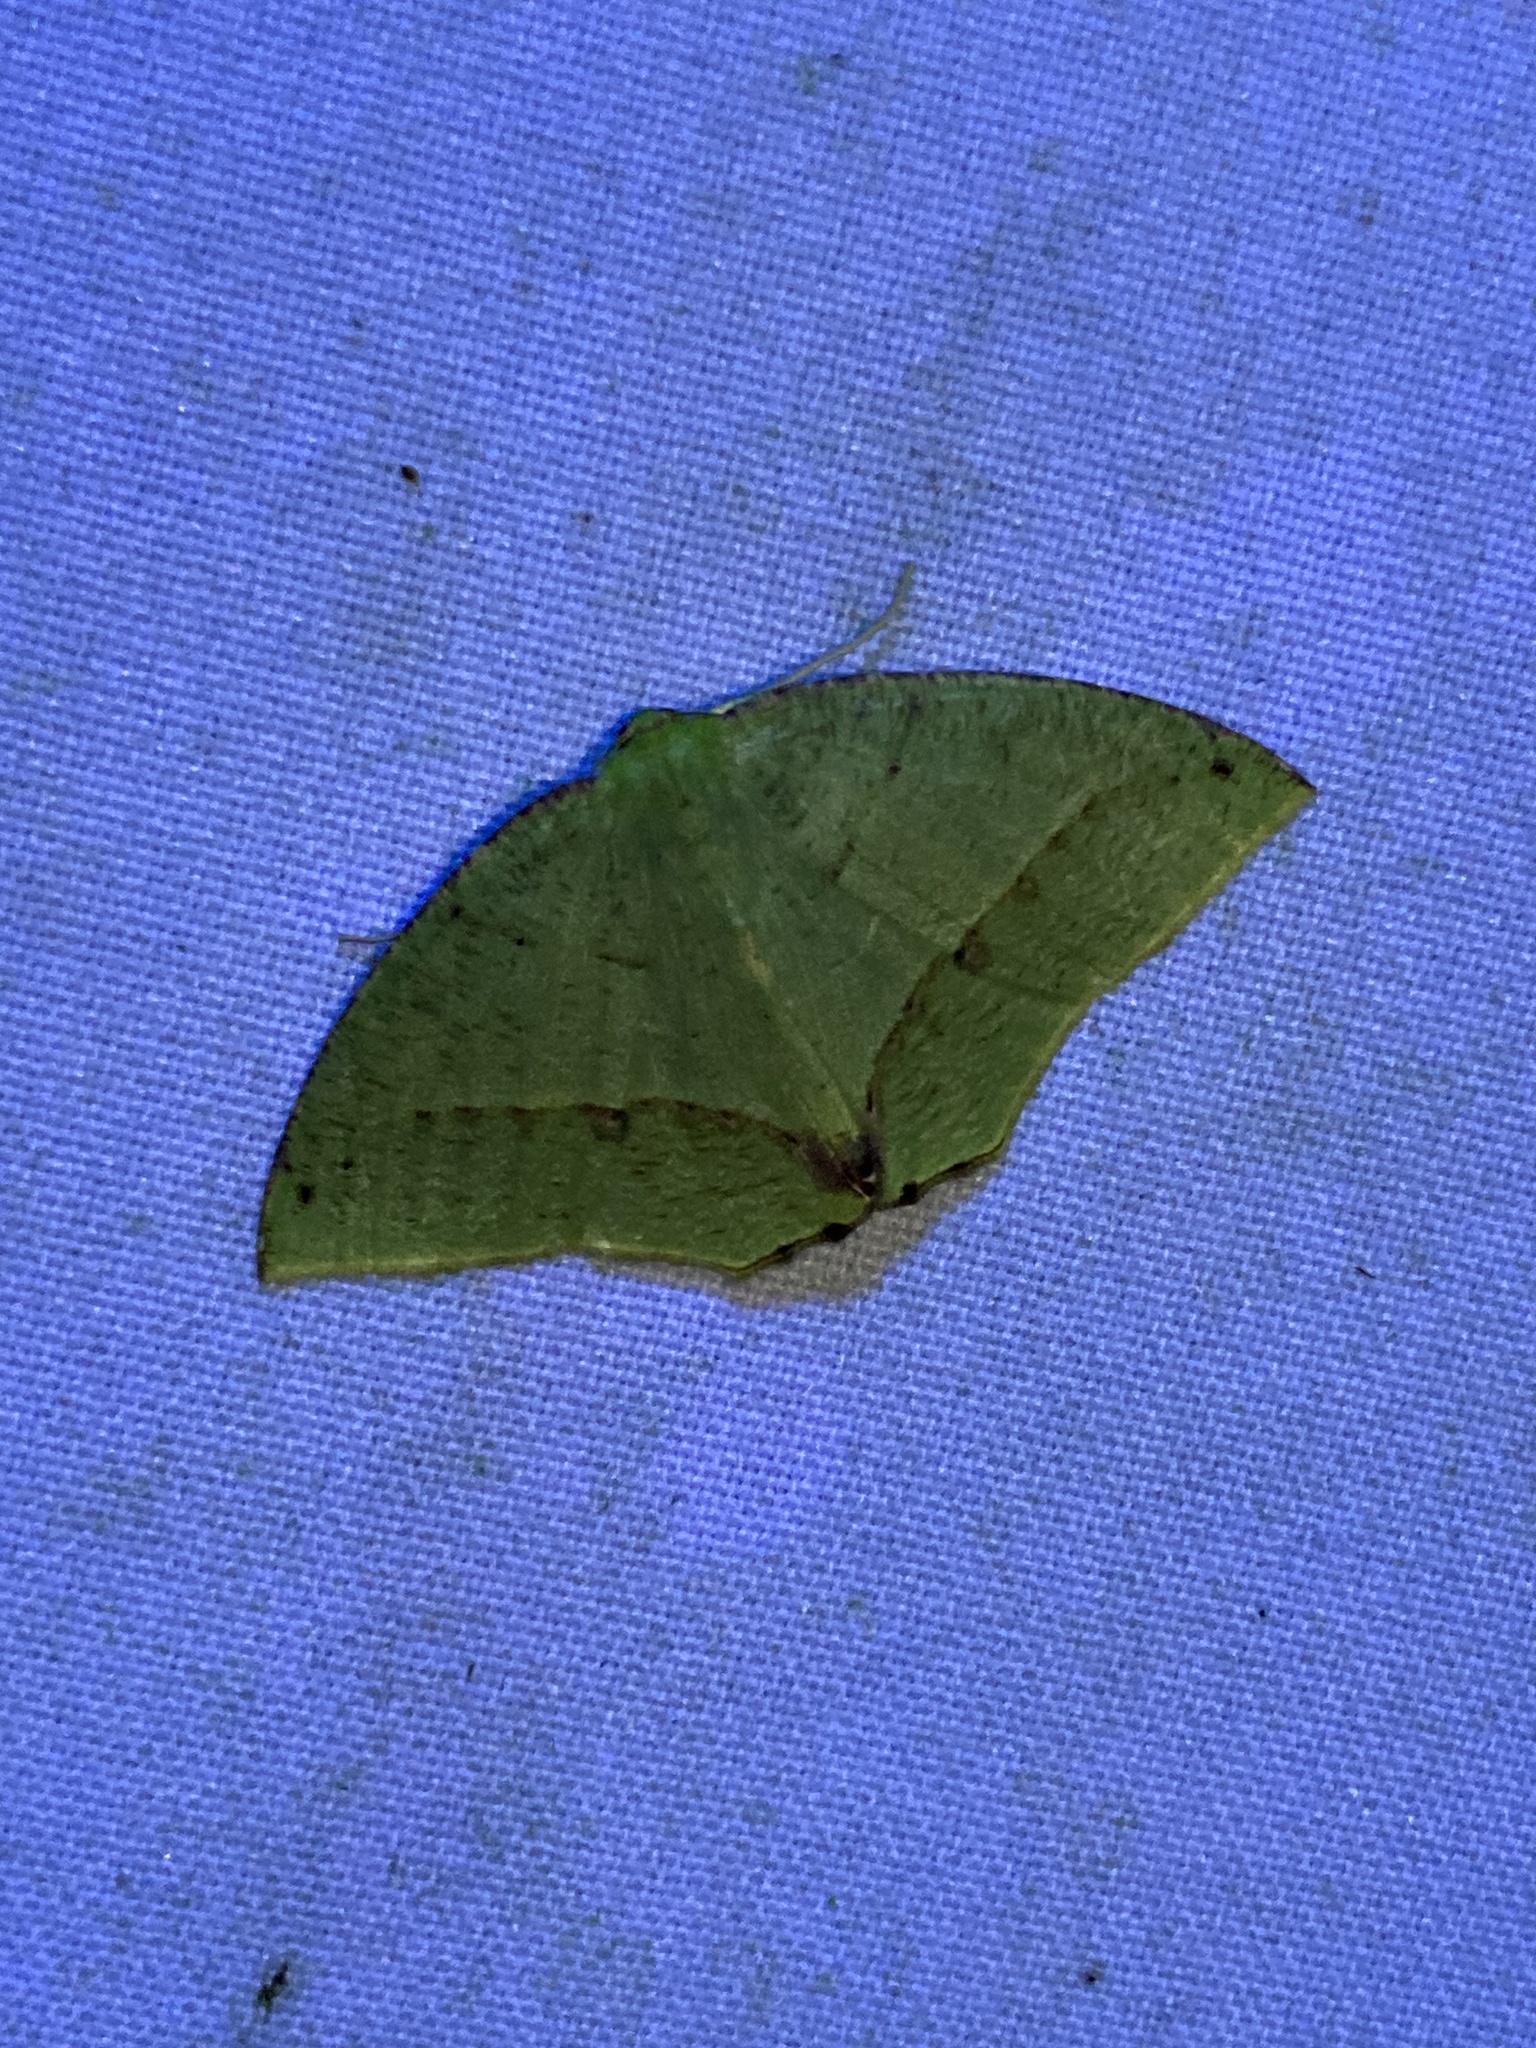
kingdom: Animalia
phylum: Arthropoda
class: Insecta
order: Lepidoptera
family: Geometridae
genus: Phyle
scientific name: Phyle cartago
